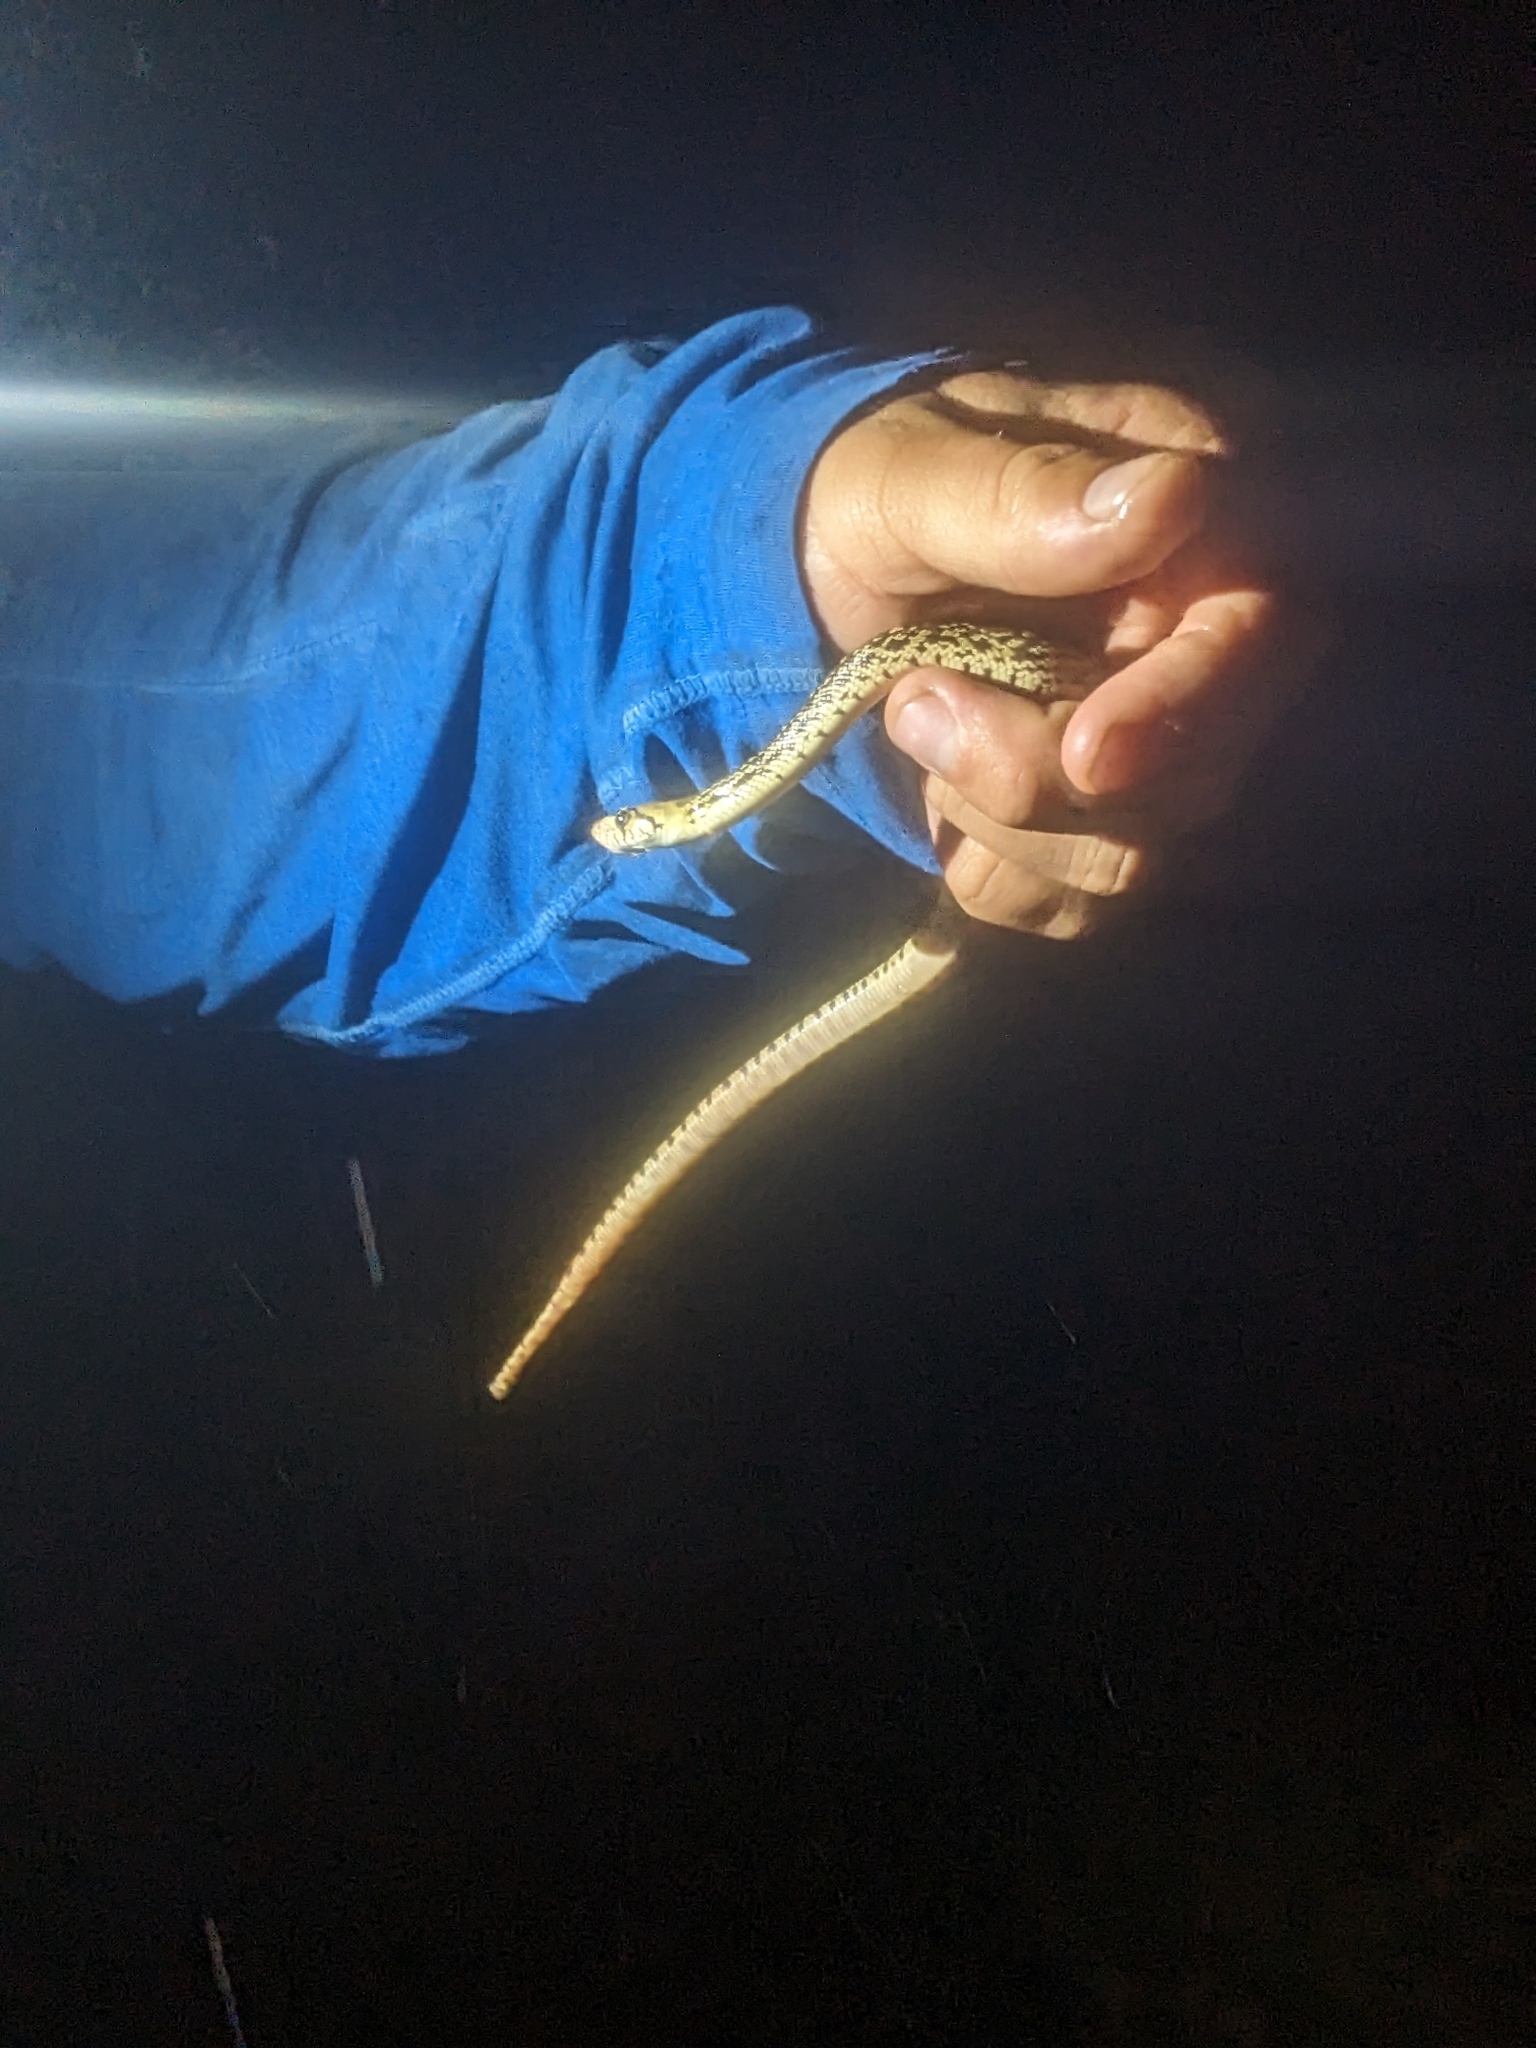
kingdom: Animalia
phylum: Chordata
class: Squamata
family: Colubridae
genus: Pituophis
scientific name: Pituophis catenifer
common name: Gopher snake
